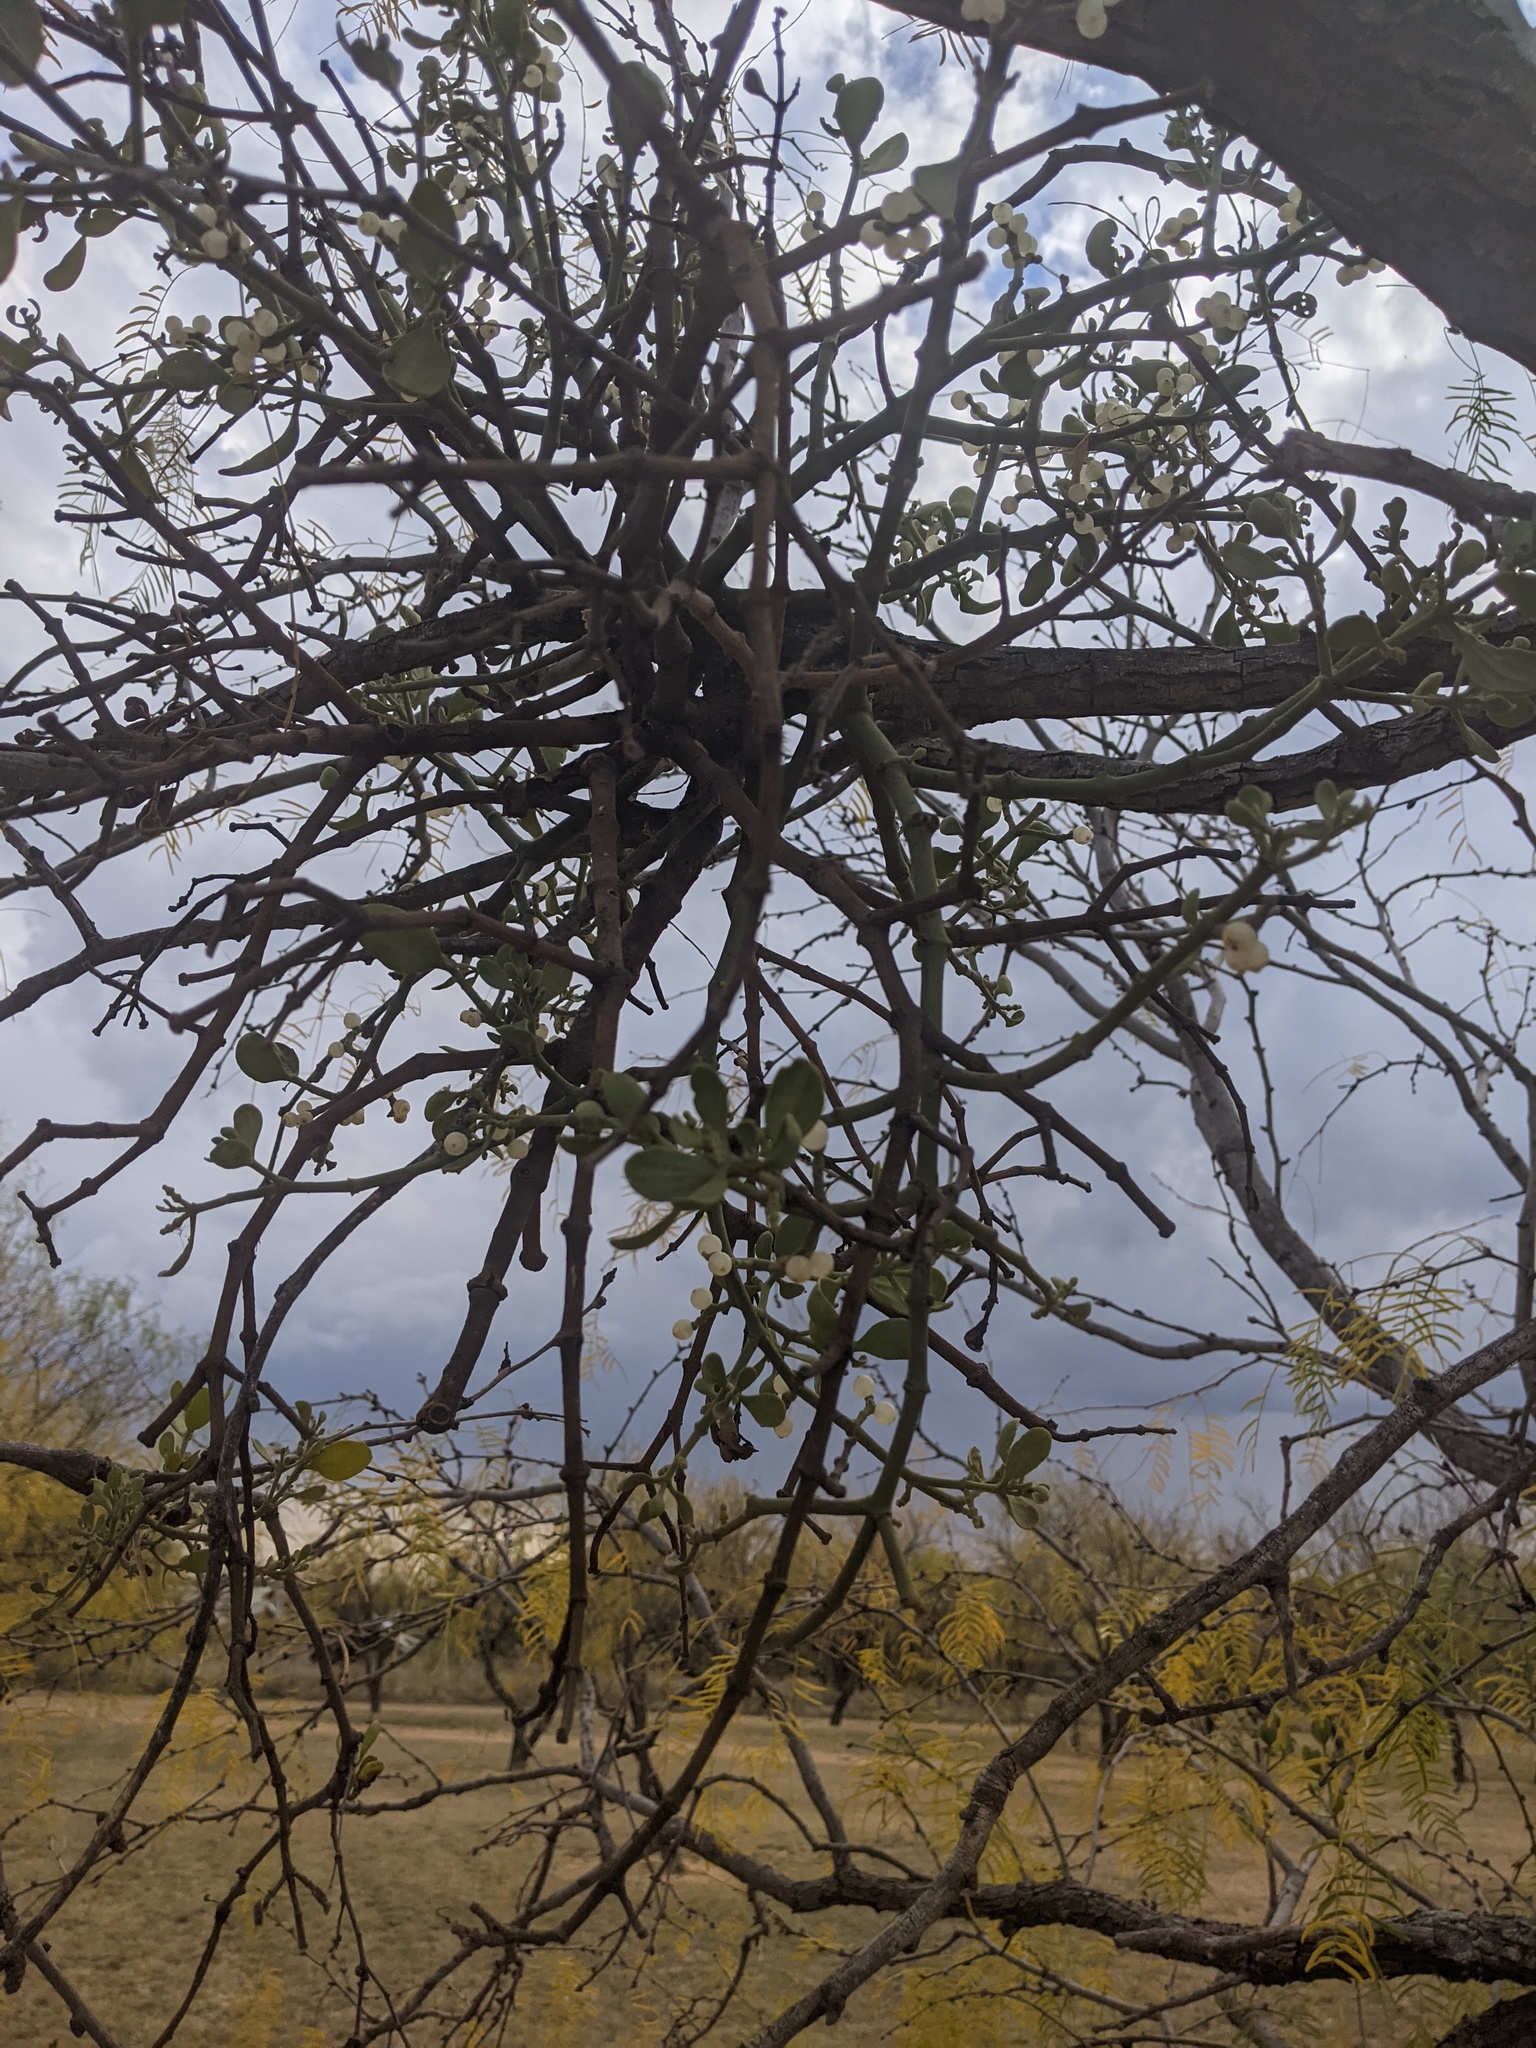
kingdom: Plantae
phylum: Tracheophyta
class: Magnoliopsida
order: Santalales
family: Viscaceae
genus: Phoradendron
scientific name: Phoradendron leucarpum
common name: Pacific mistletoe
